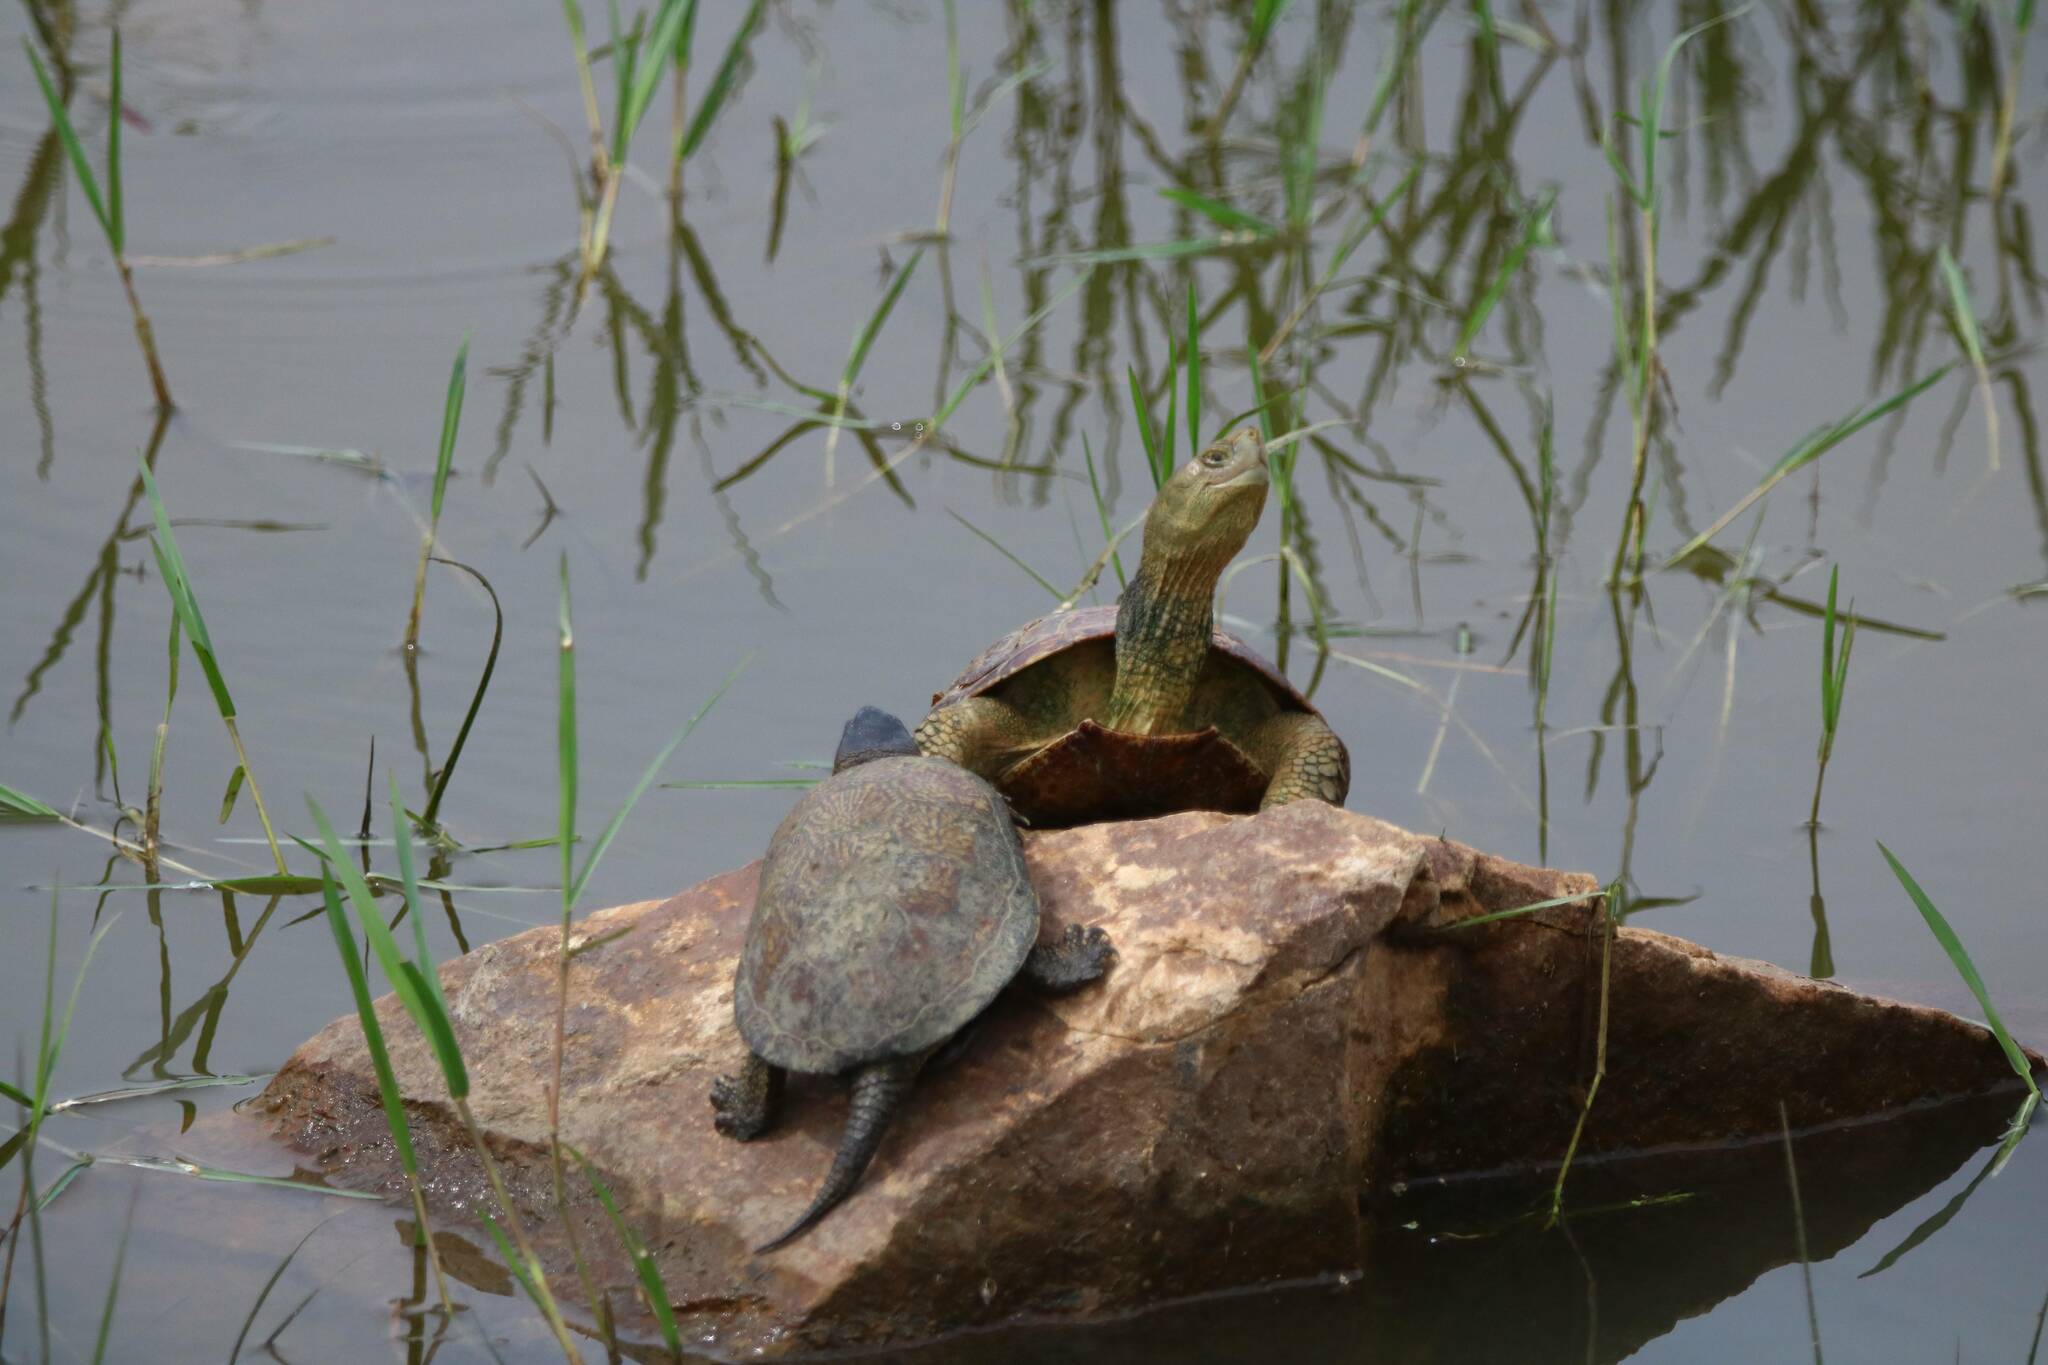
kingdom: Animalia
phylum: Chordata
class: Testudines
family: Geoemydidae
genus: Mauremys
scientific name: Mauremys leprosa
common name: Mediterranean pond turtle
